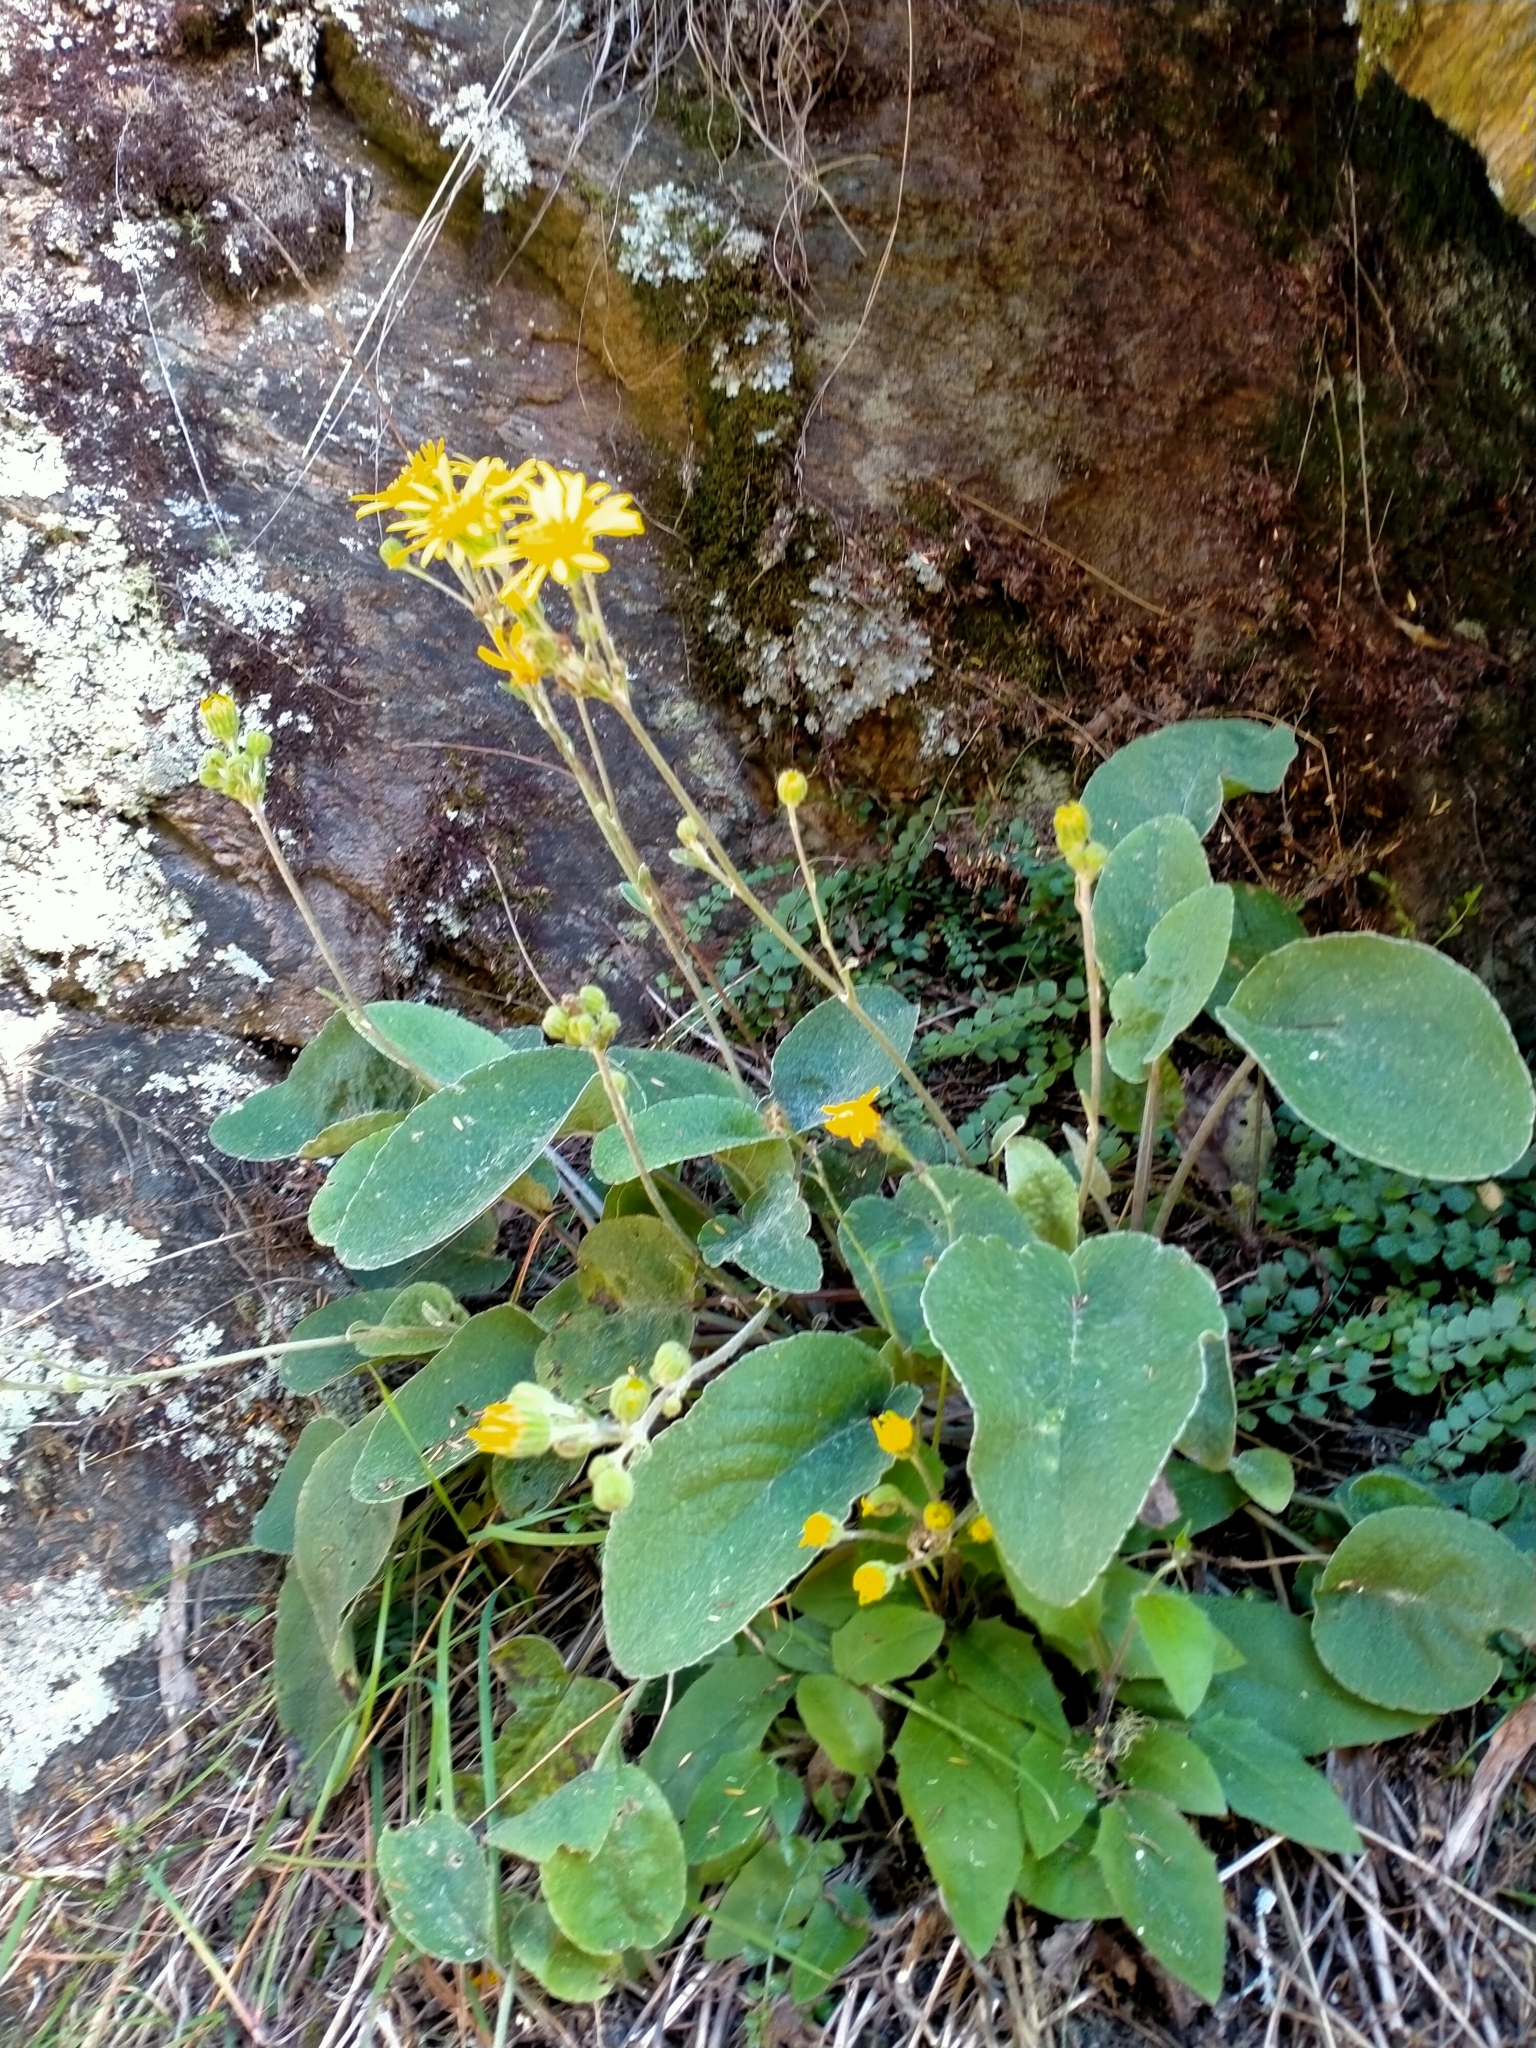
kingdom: Plantae
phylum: Tracheophyta
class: Magnoliopsida
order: Asterales
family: Asteraceae
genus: Brachyglottis
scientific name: Brachyglottis southlandica
